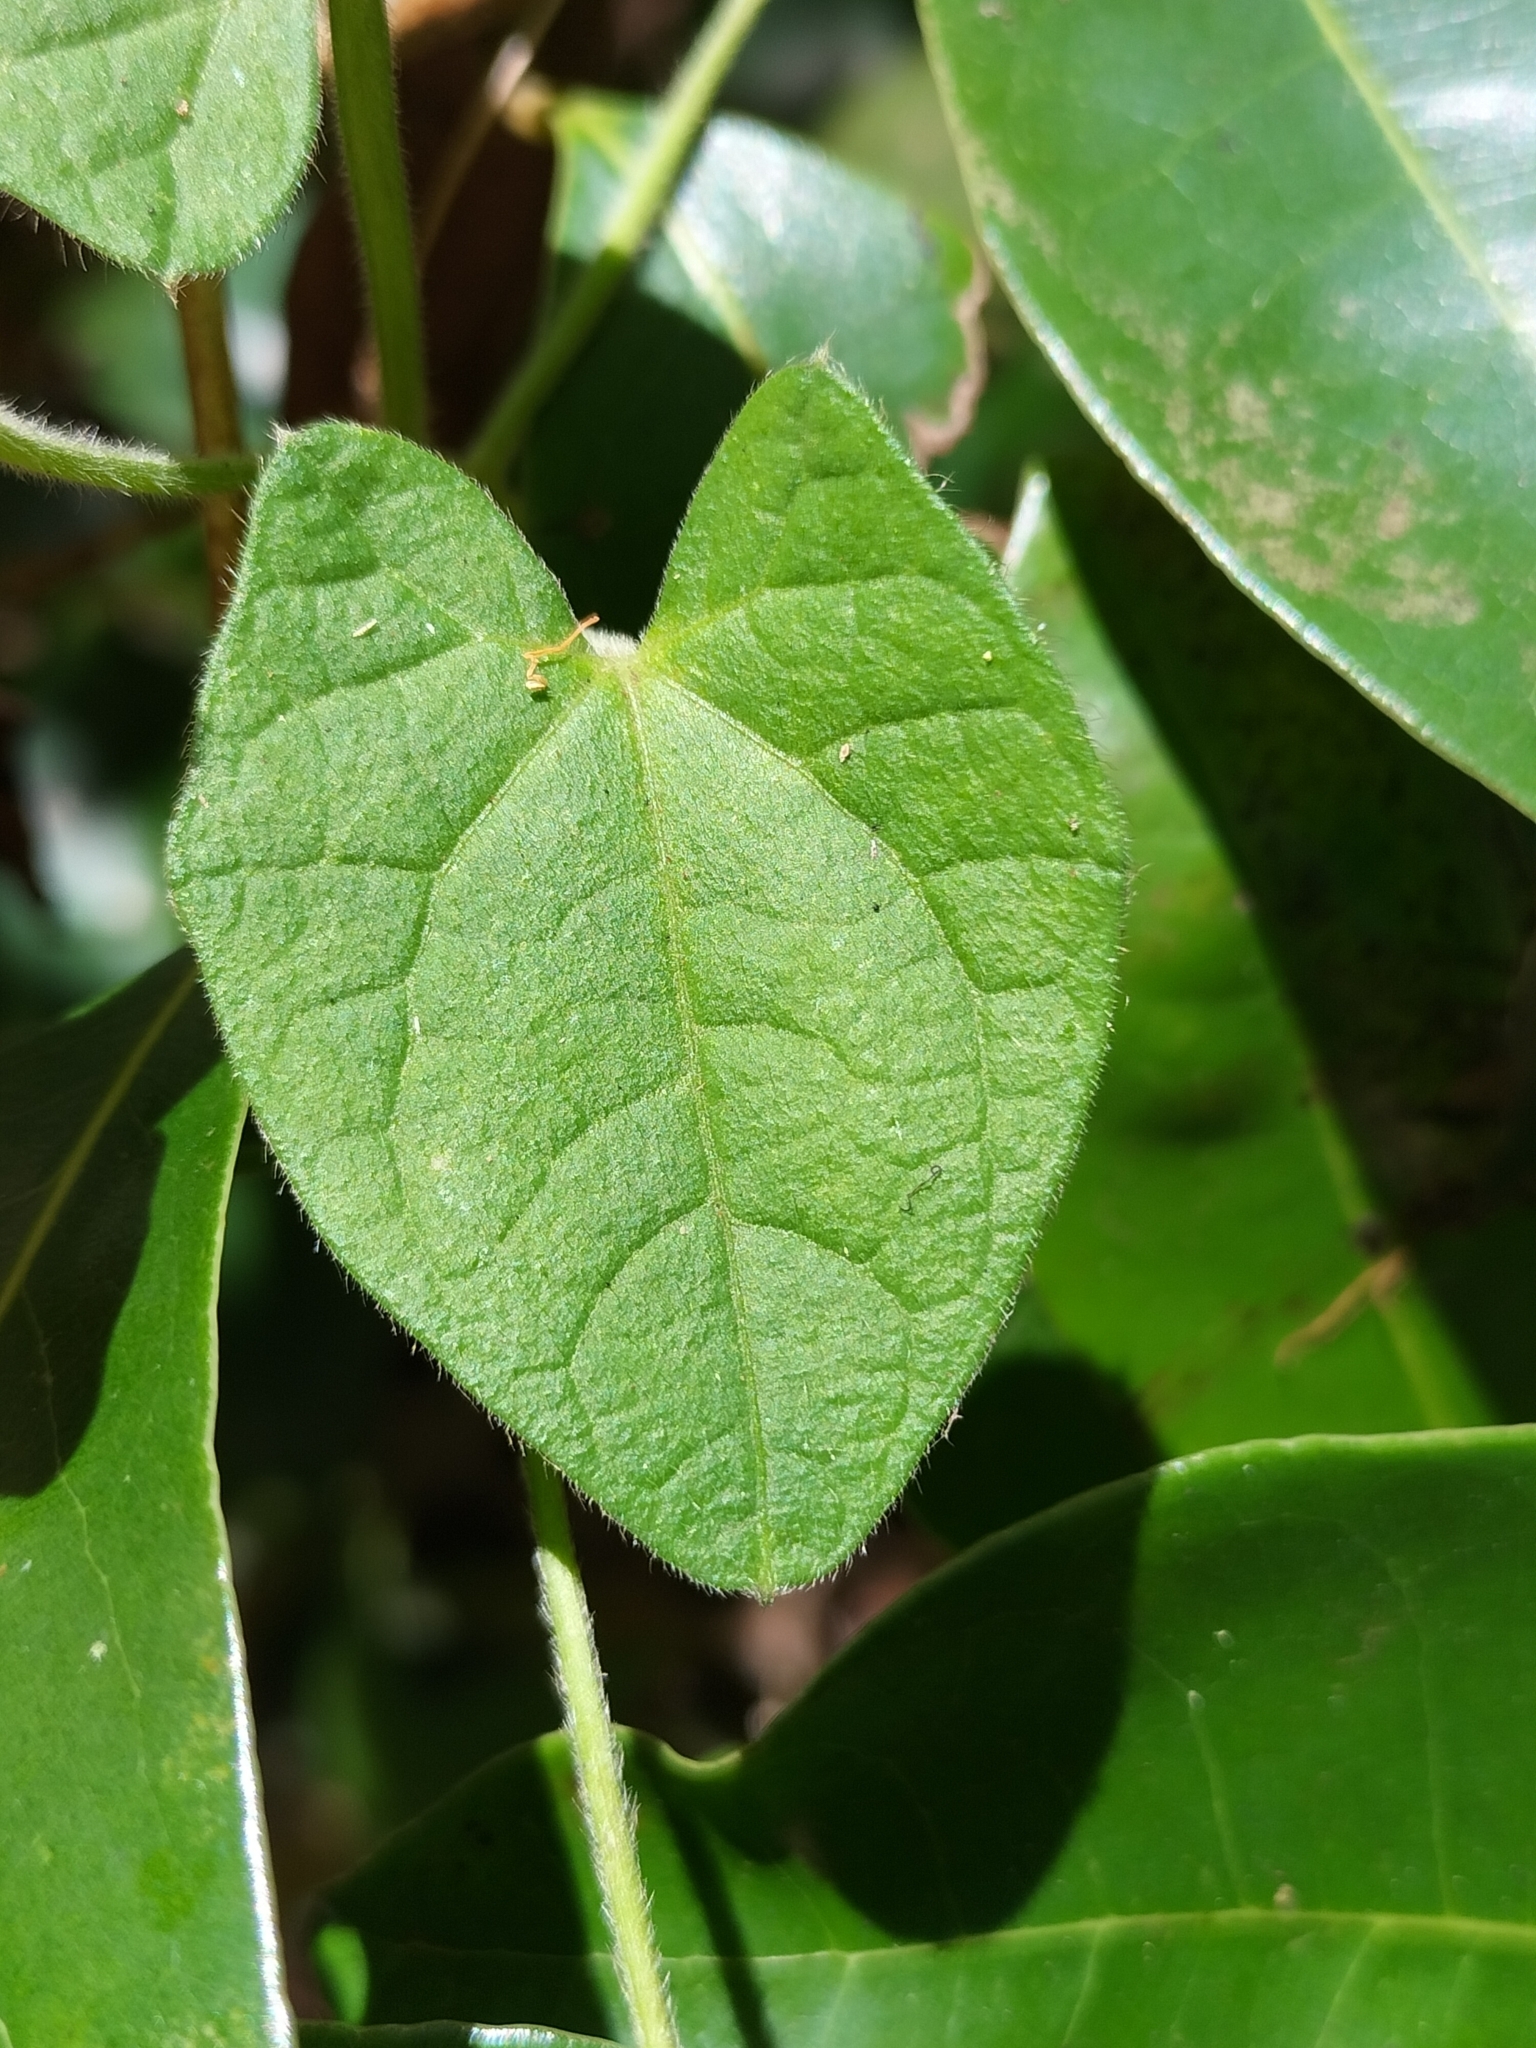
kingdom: Plantae
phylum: Tracheophyta
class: Magnoliopsida
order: Lamiales
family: Acanthaceae
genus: Thunbergia
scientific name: Thunbergia alata
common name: Blackeyed susan vine
